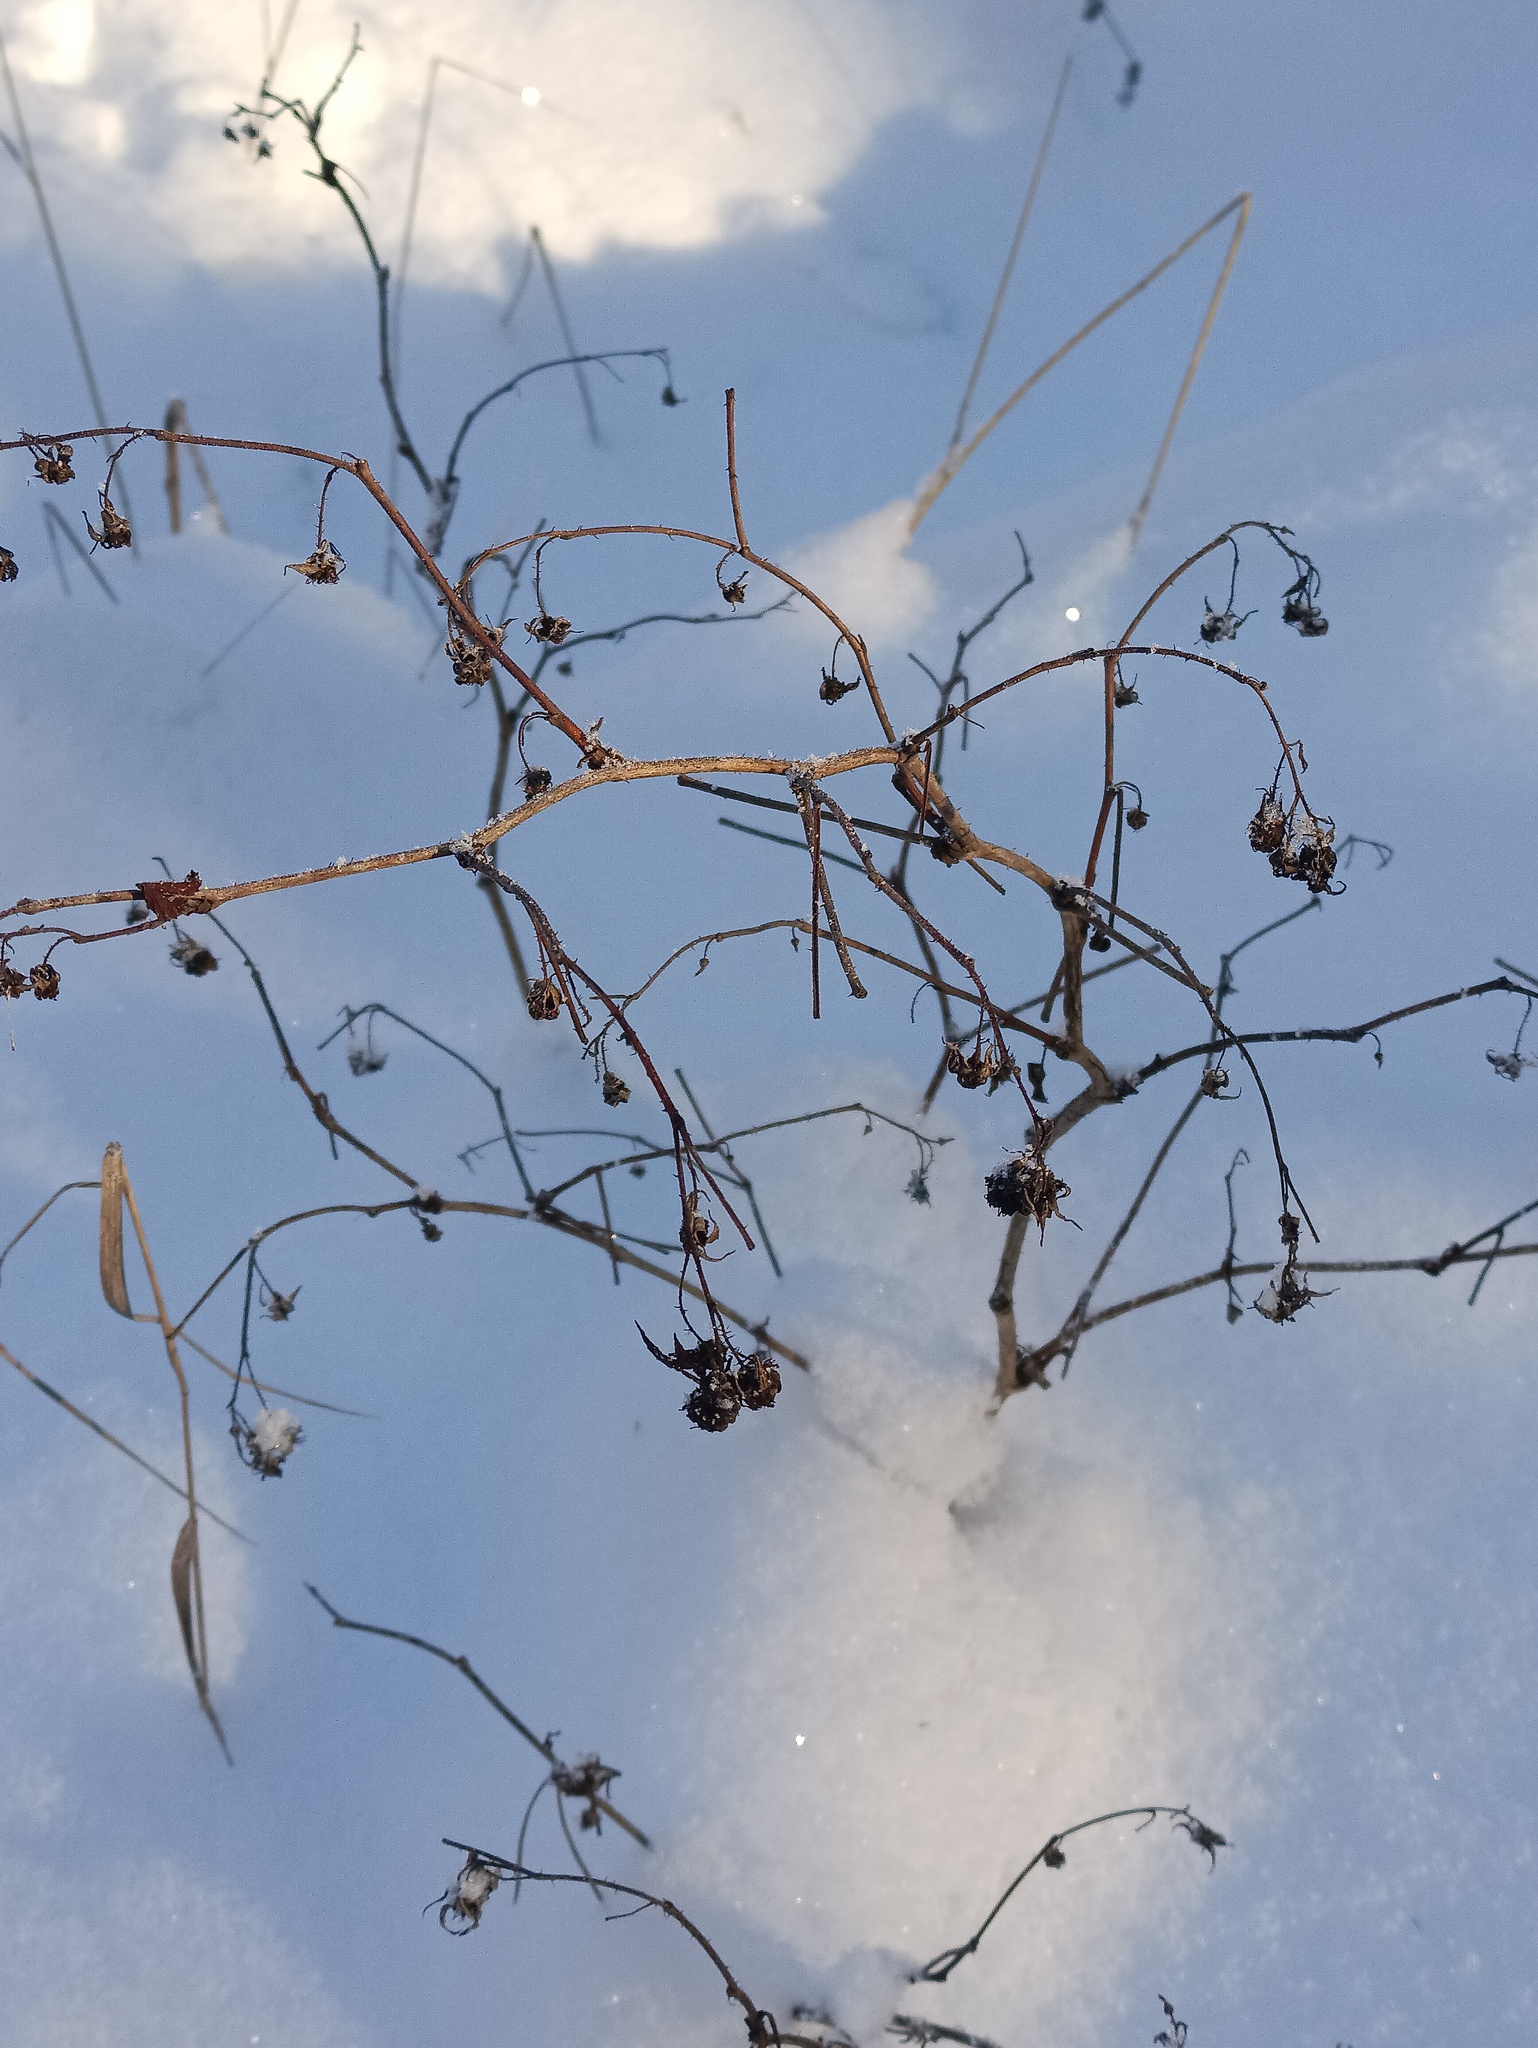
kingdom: Plantae
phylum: Tracheophyta
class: Magnoliopsida
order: Rosales
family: Rosaceae
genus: Rubus
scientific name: Rubus idaeus
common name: Raspberry
